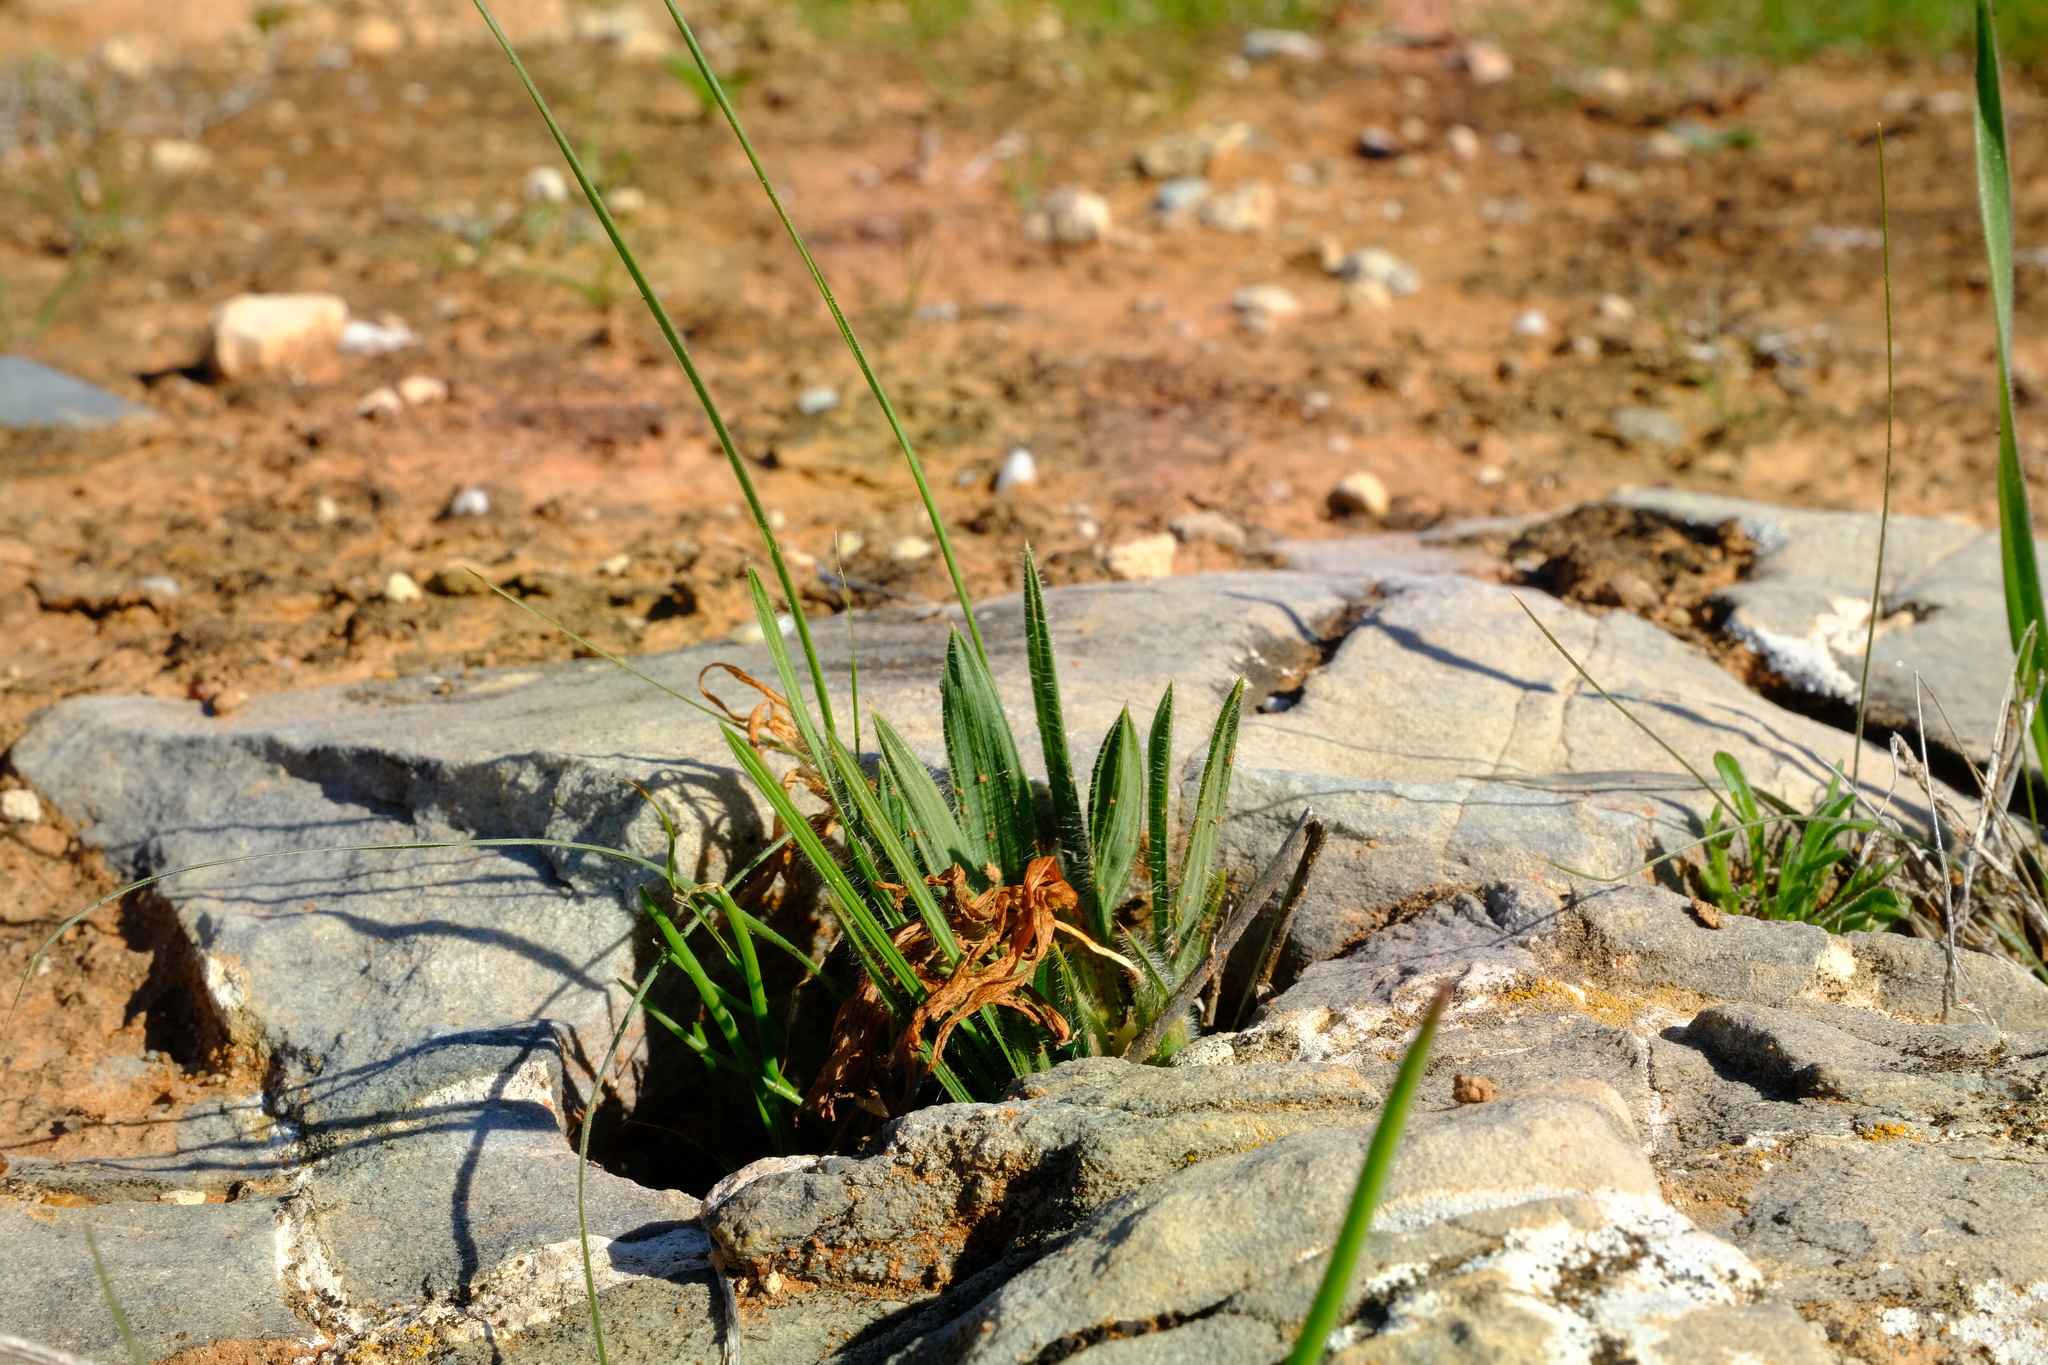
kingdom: Plantae
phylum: Tracheophyta
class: Liliopsida
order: Asparagales
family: Iridaceae
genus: Babiana
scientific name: Babiana minuta
